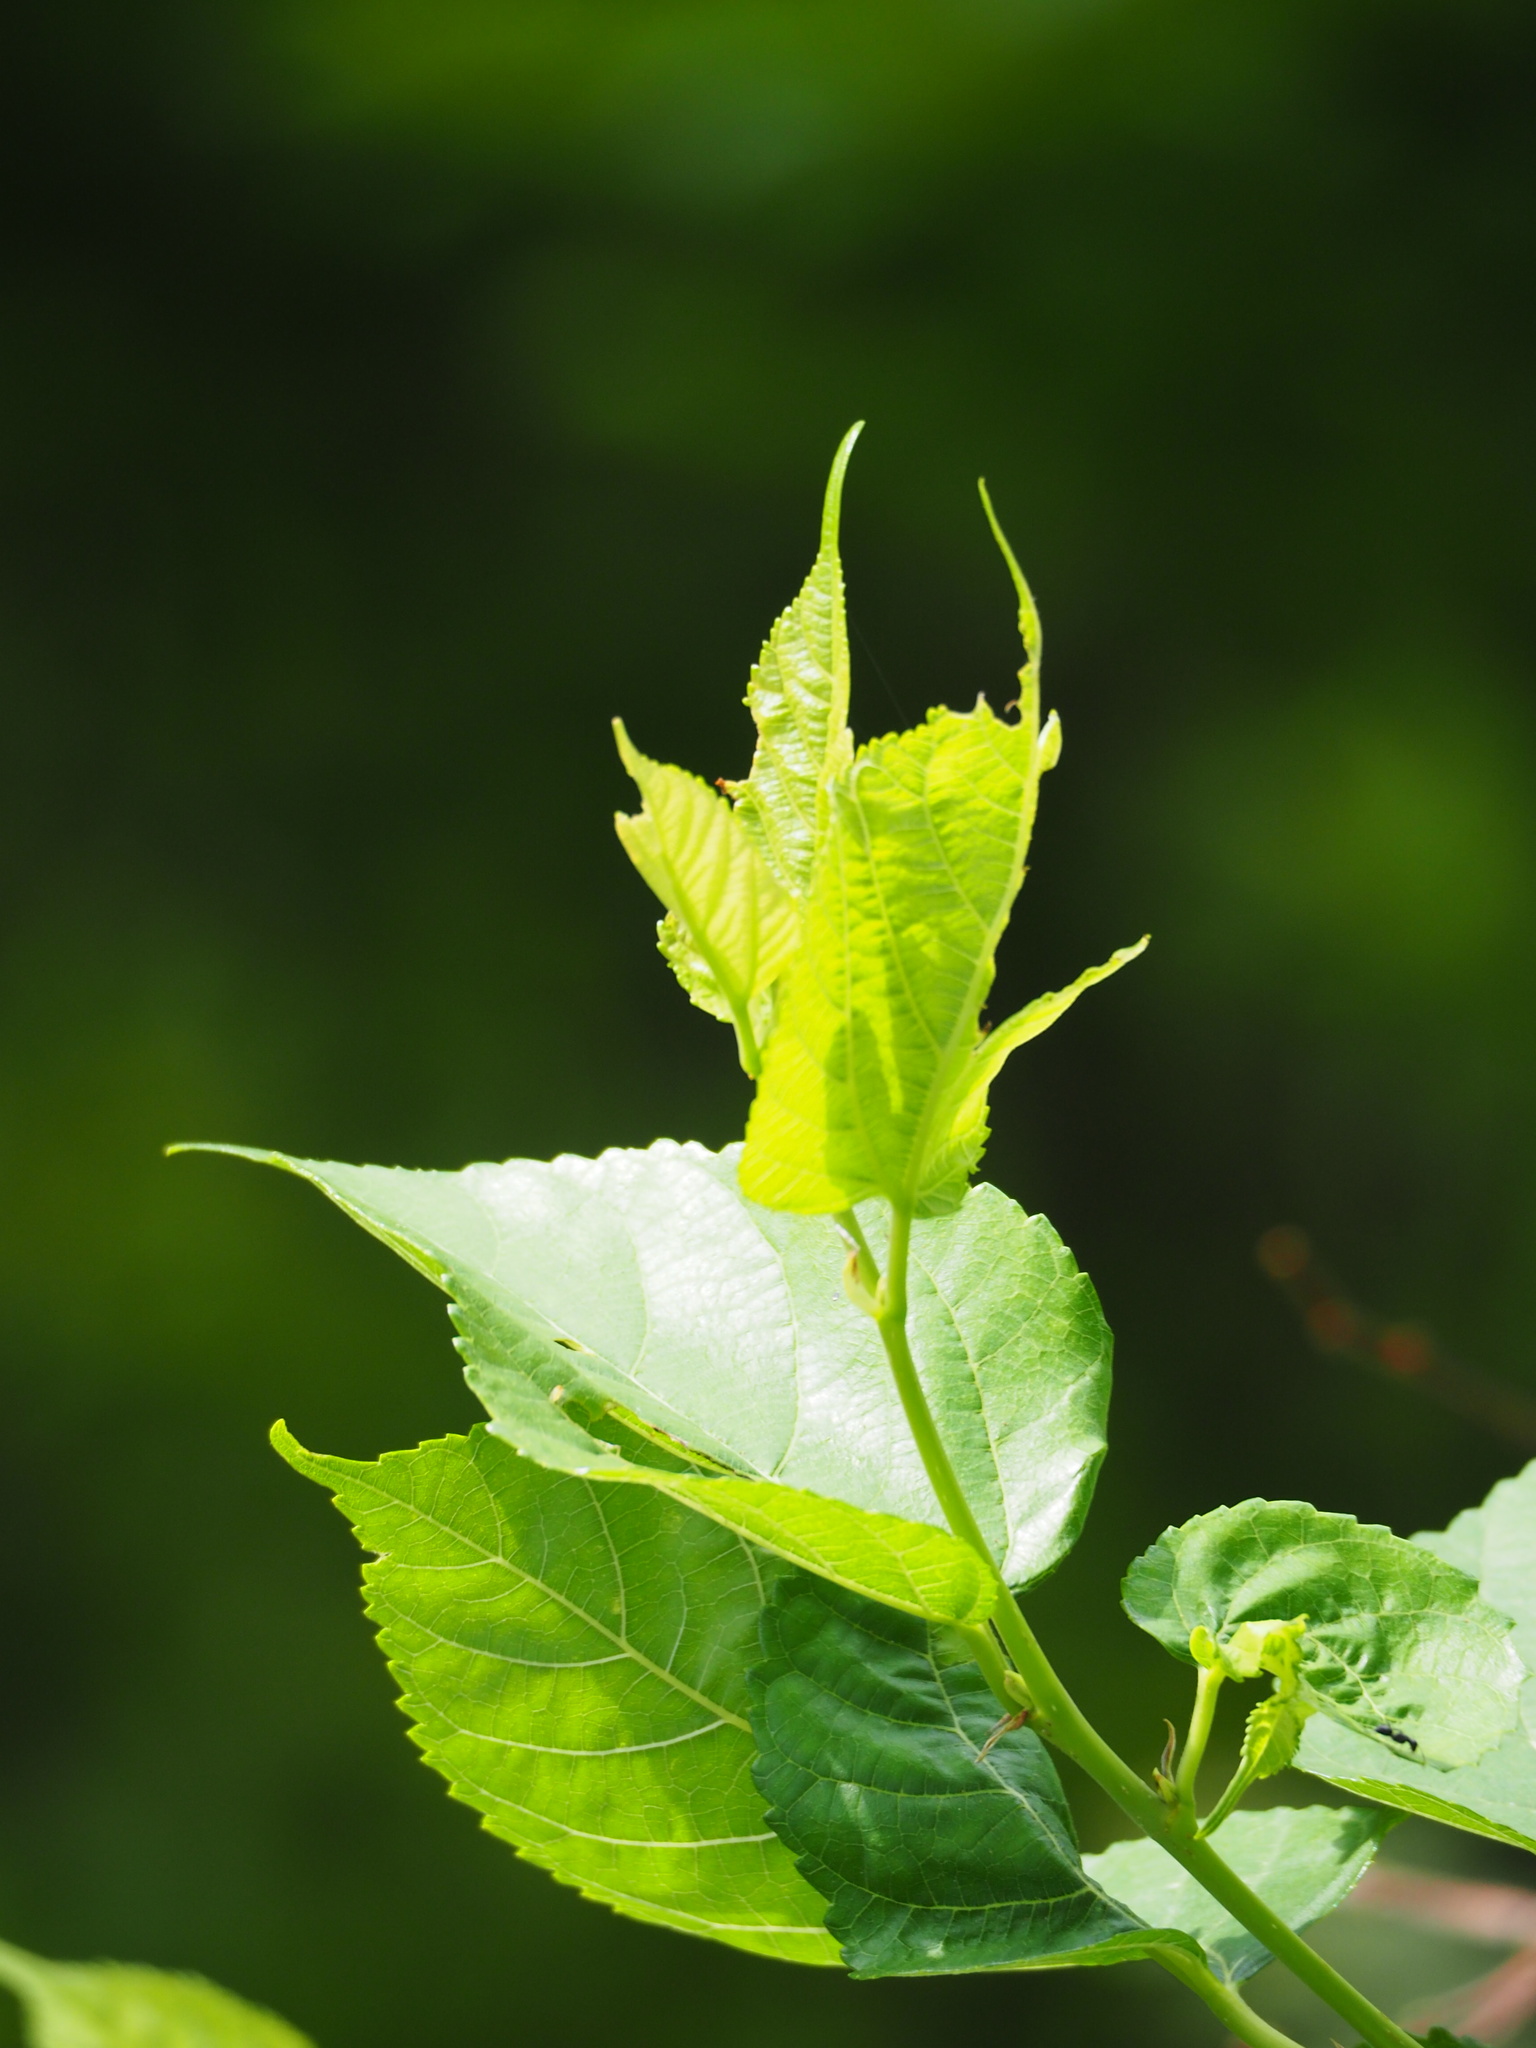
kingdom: Plantae
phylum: Tracheophyta
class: Magnoliopsida
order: Rosales
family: Moraceae
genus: Morus
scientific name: Morus indica
